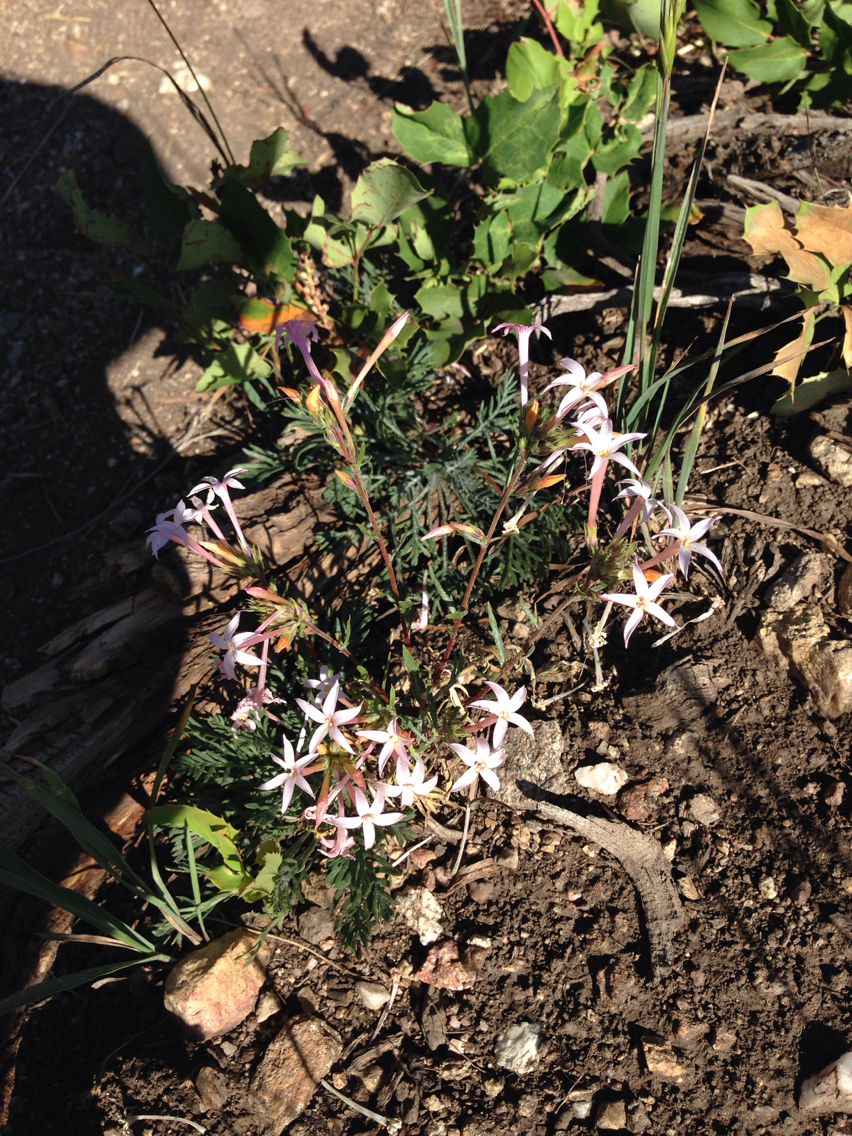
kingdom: Plantae
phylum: Tracheophyta
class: Magnoliopsida
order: Ericales
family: Polemoniaceae
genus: Ipomopsis
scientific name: Ipomopsis tenuituba
